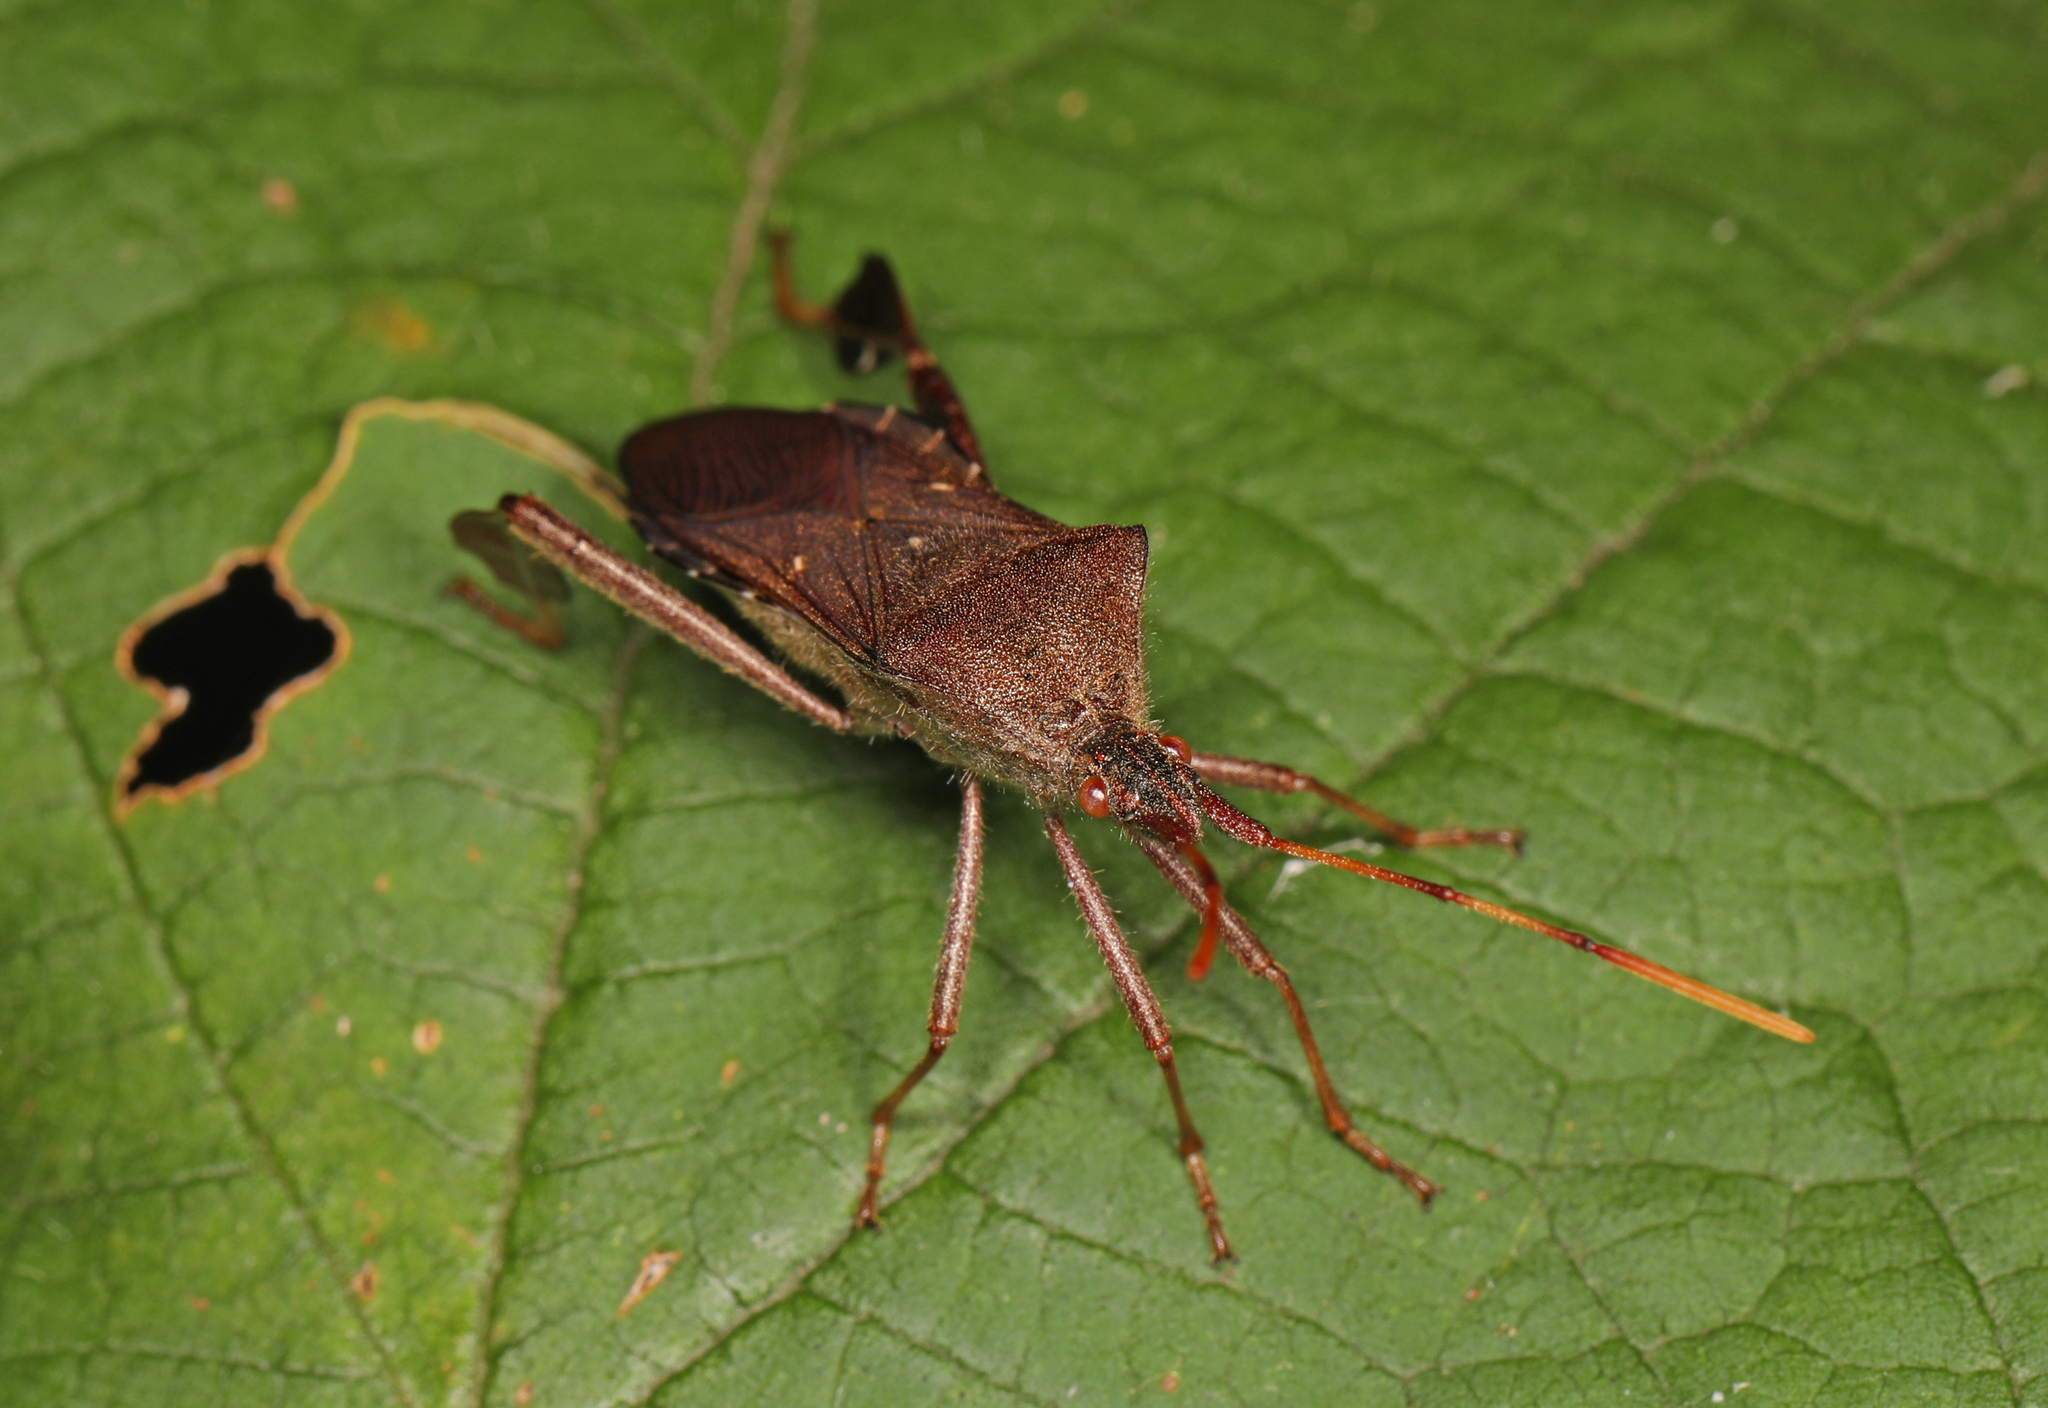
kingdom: Animalia
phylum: Arthropoda
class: Insecta
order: Hemiptera
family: Coreidae
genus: Leptoglossus
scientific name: Leptoglossus oppositus
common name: Northern leaf-footed bug
